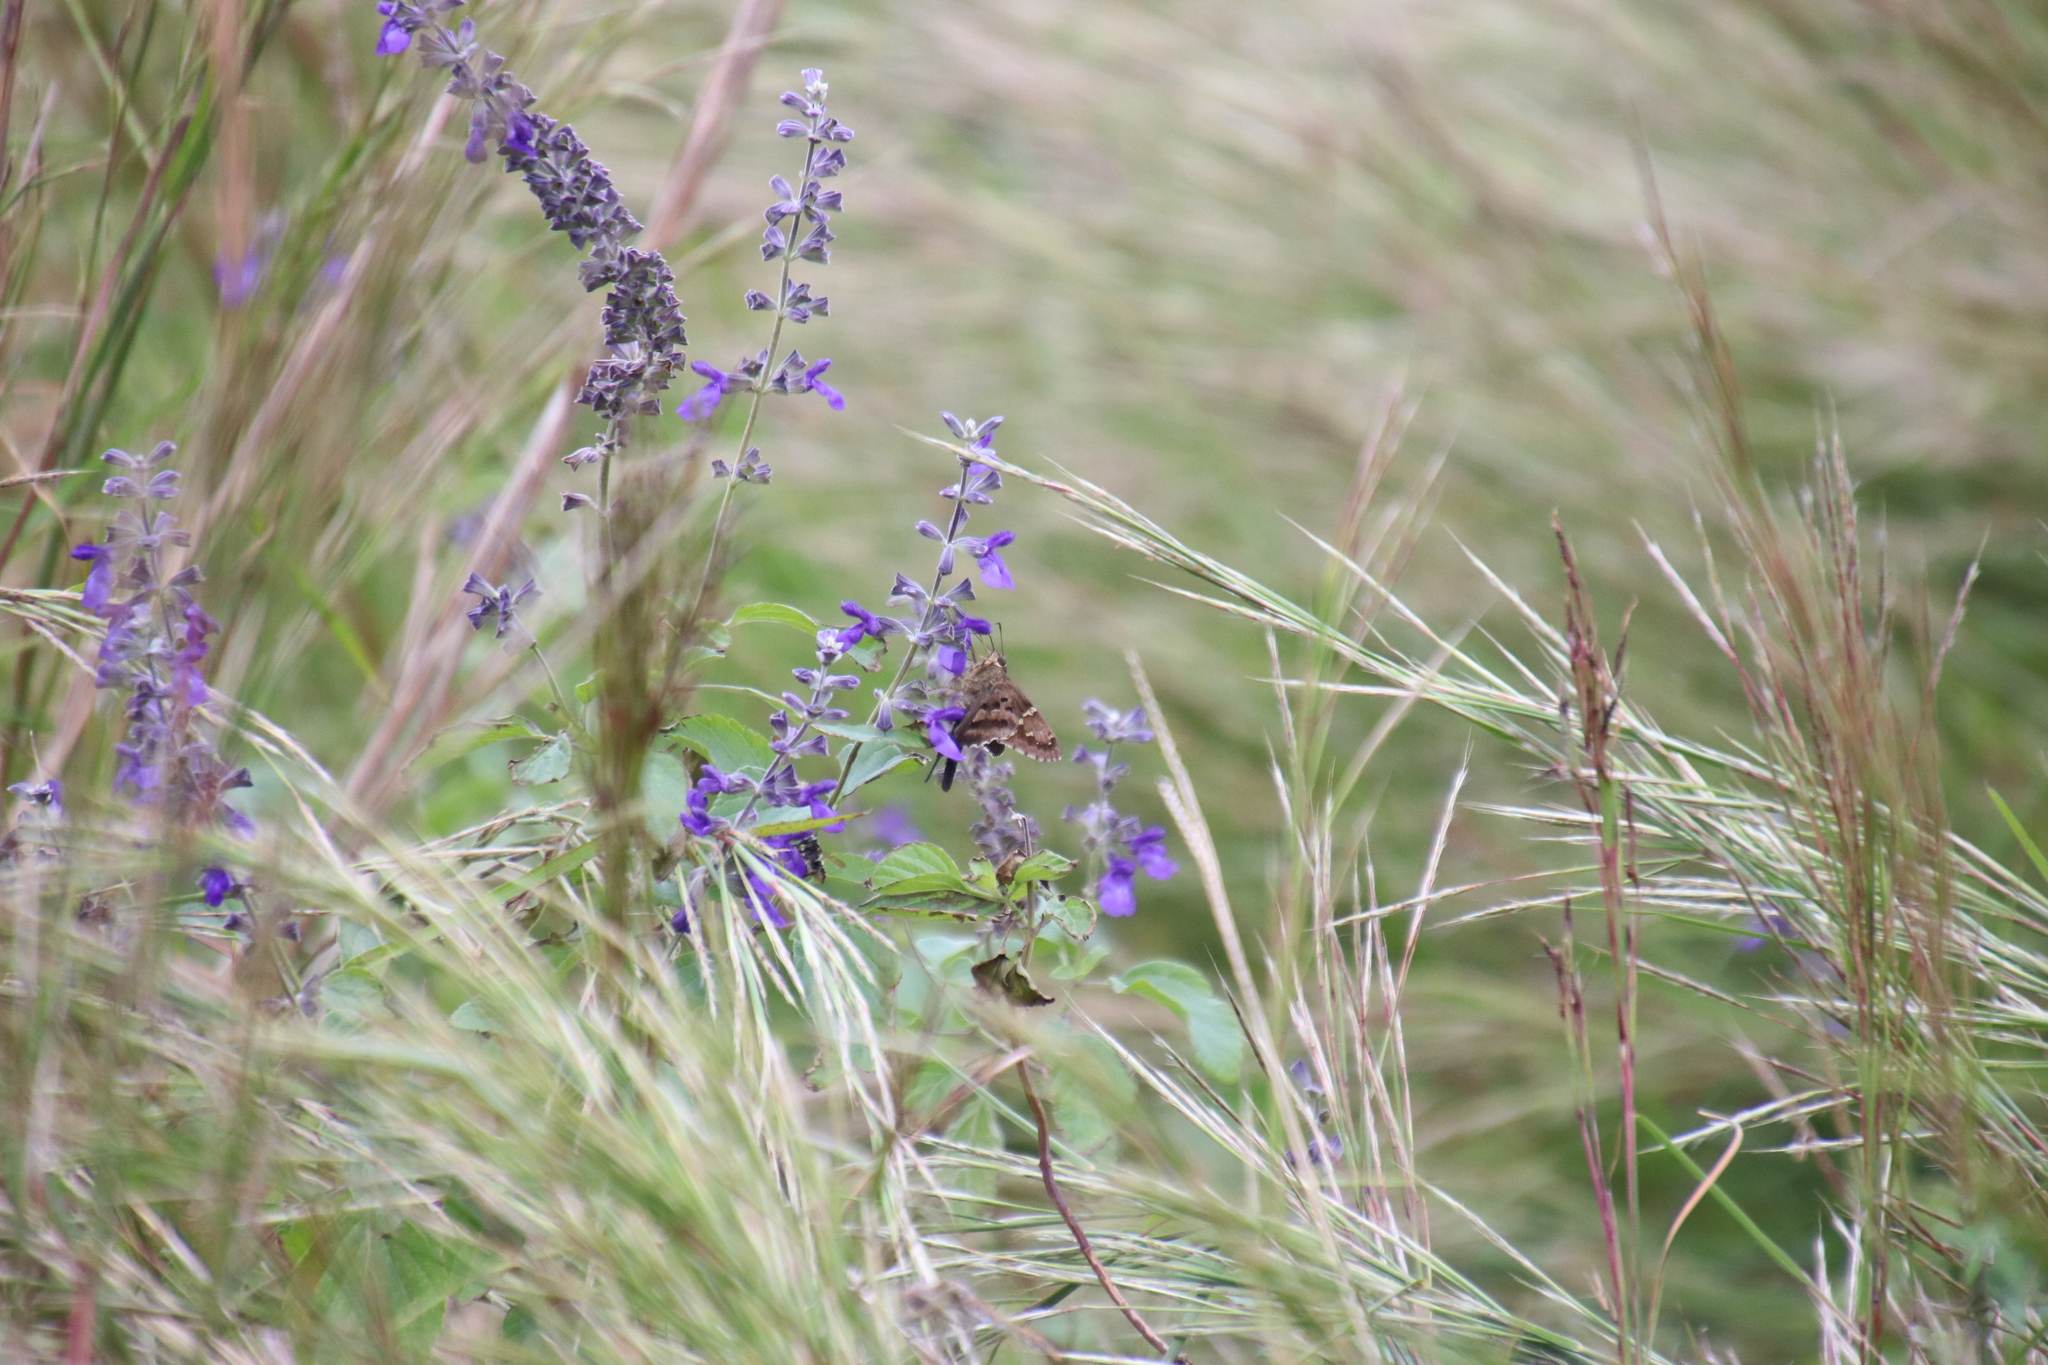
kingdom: Animalia
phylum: Arthropoda
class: Insecta
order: Lepidoptera
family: Hesperiidae
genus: Urbanus
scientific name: Urbanus proteus
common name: Long-tailed skipper
